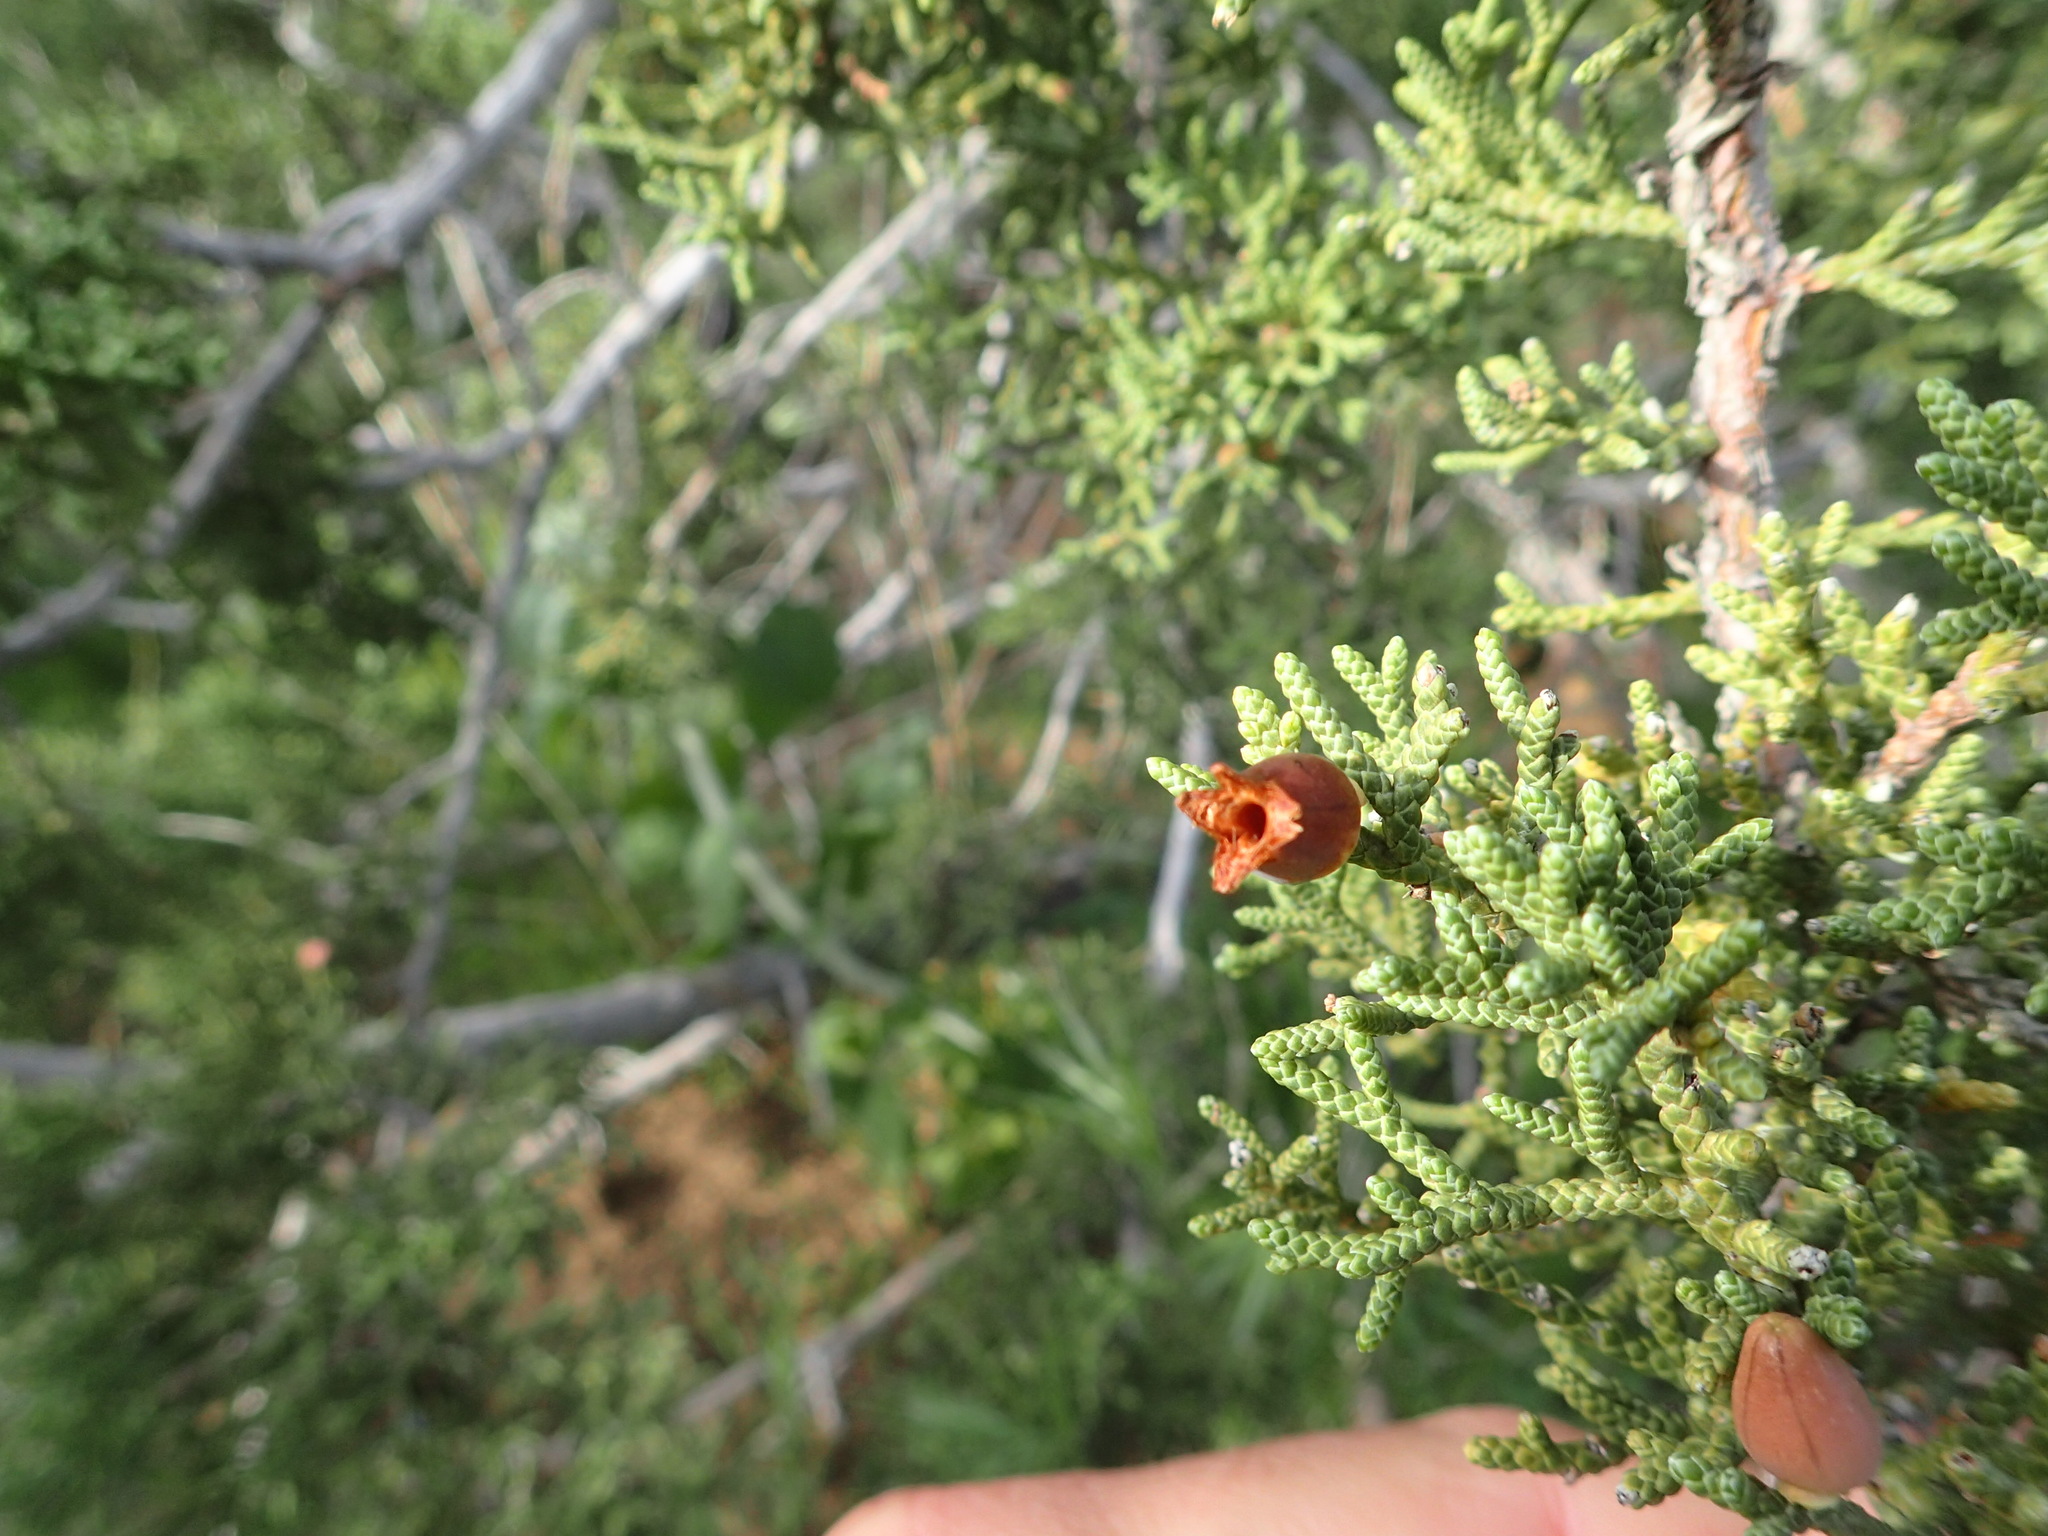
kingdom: Animalia
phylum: Arthropoda
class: Insecta
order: Diptera
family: Cecidomyiidae
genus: Walshomyia
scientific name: Walshomyia juniperina
